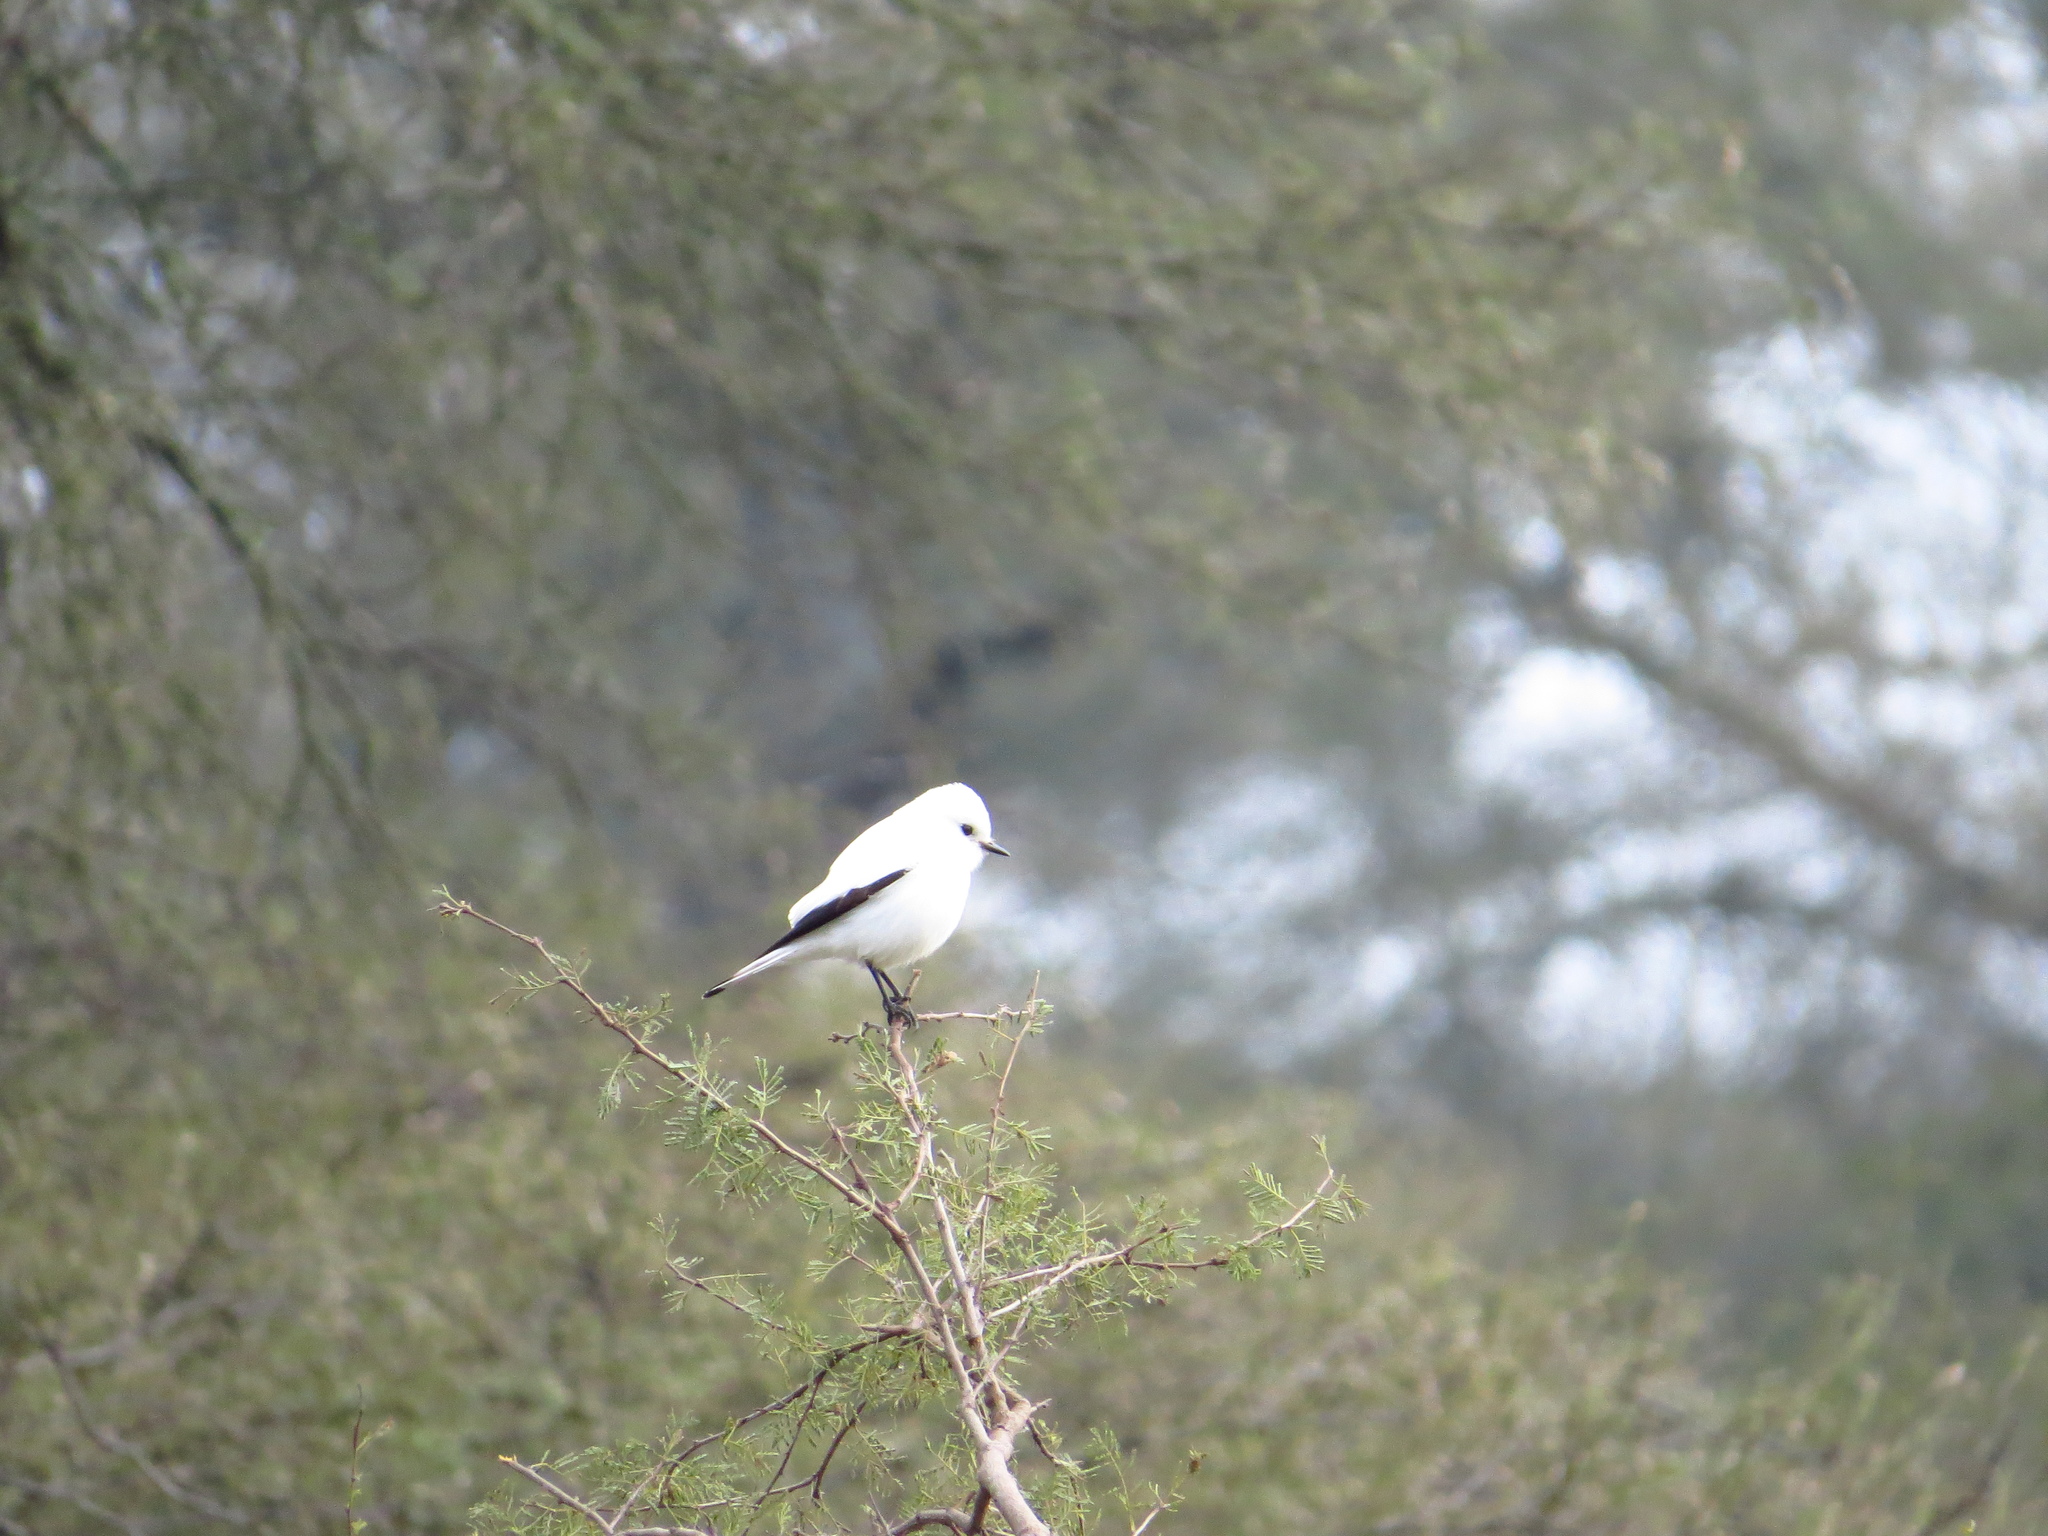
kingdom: Animalia
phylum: Chordata
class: Aves
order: Passeriformes
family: Tyrannidae
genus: Xolmis
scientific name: Xolmis irupero
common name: White monjita
